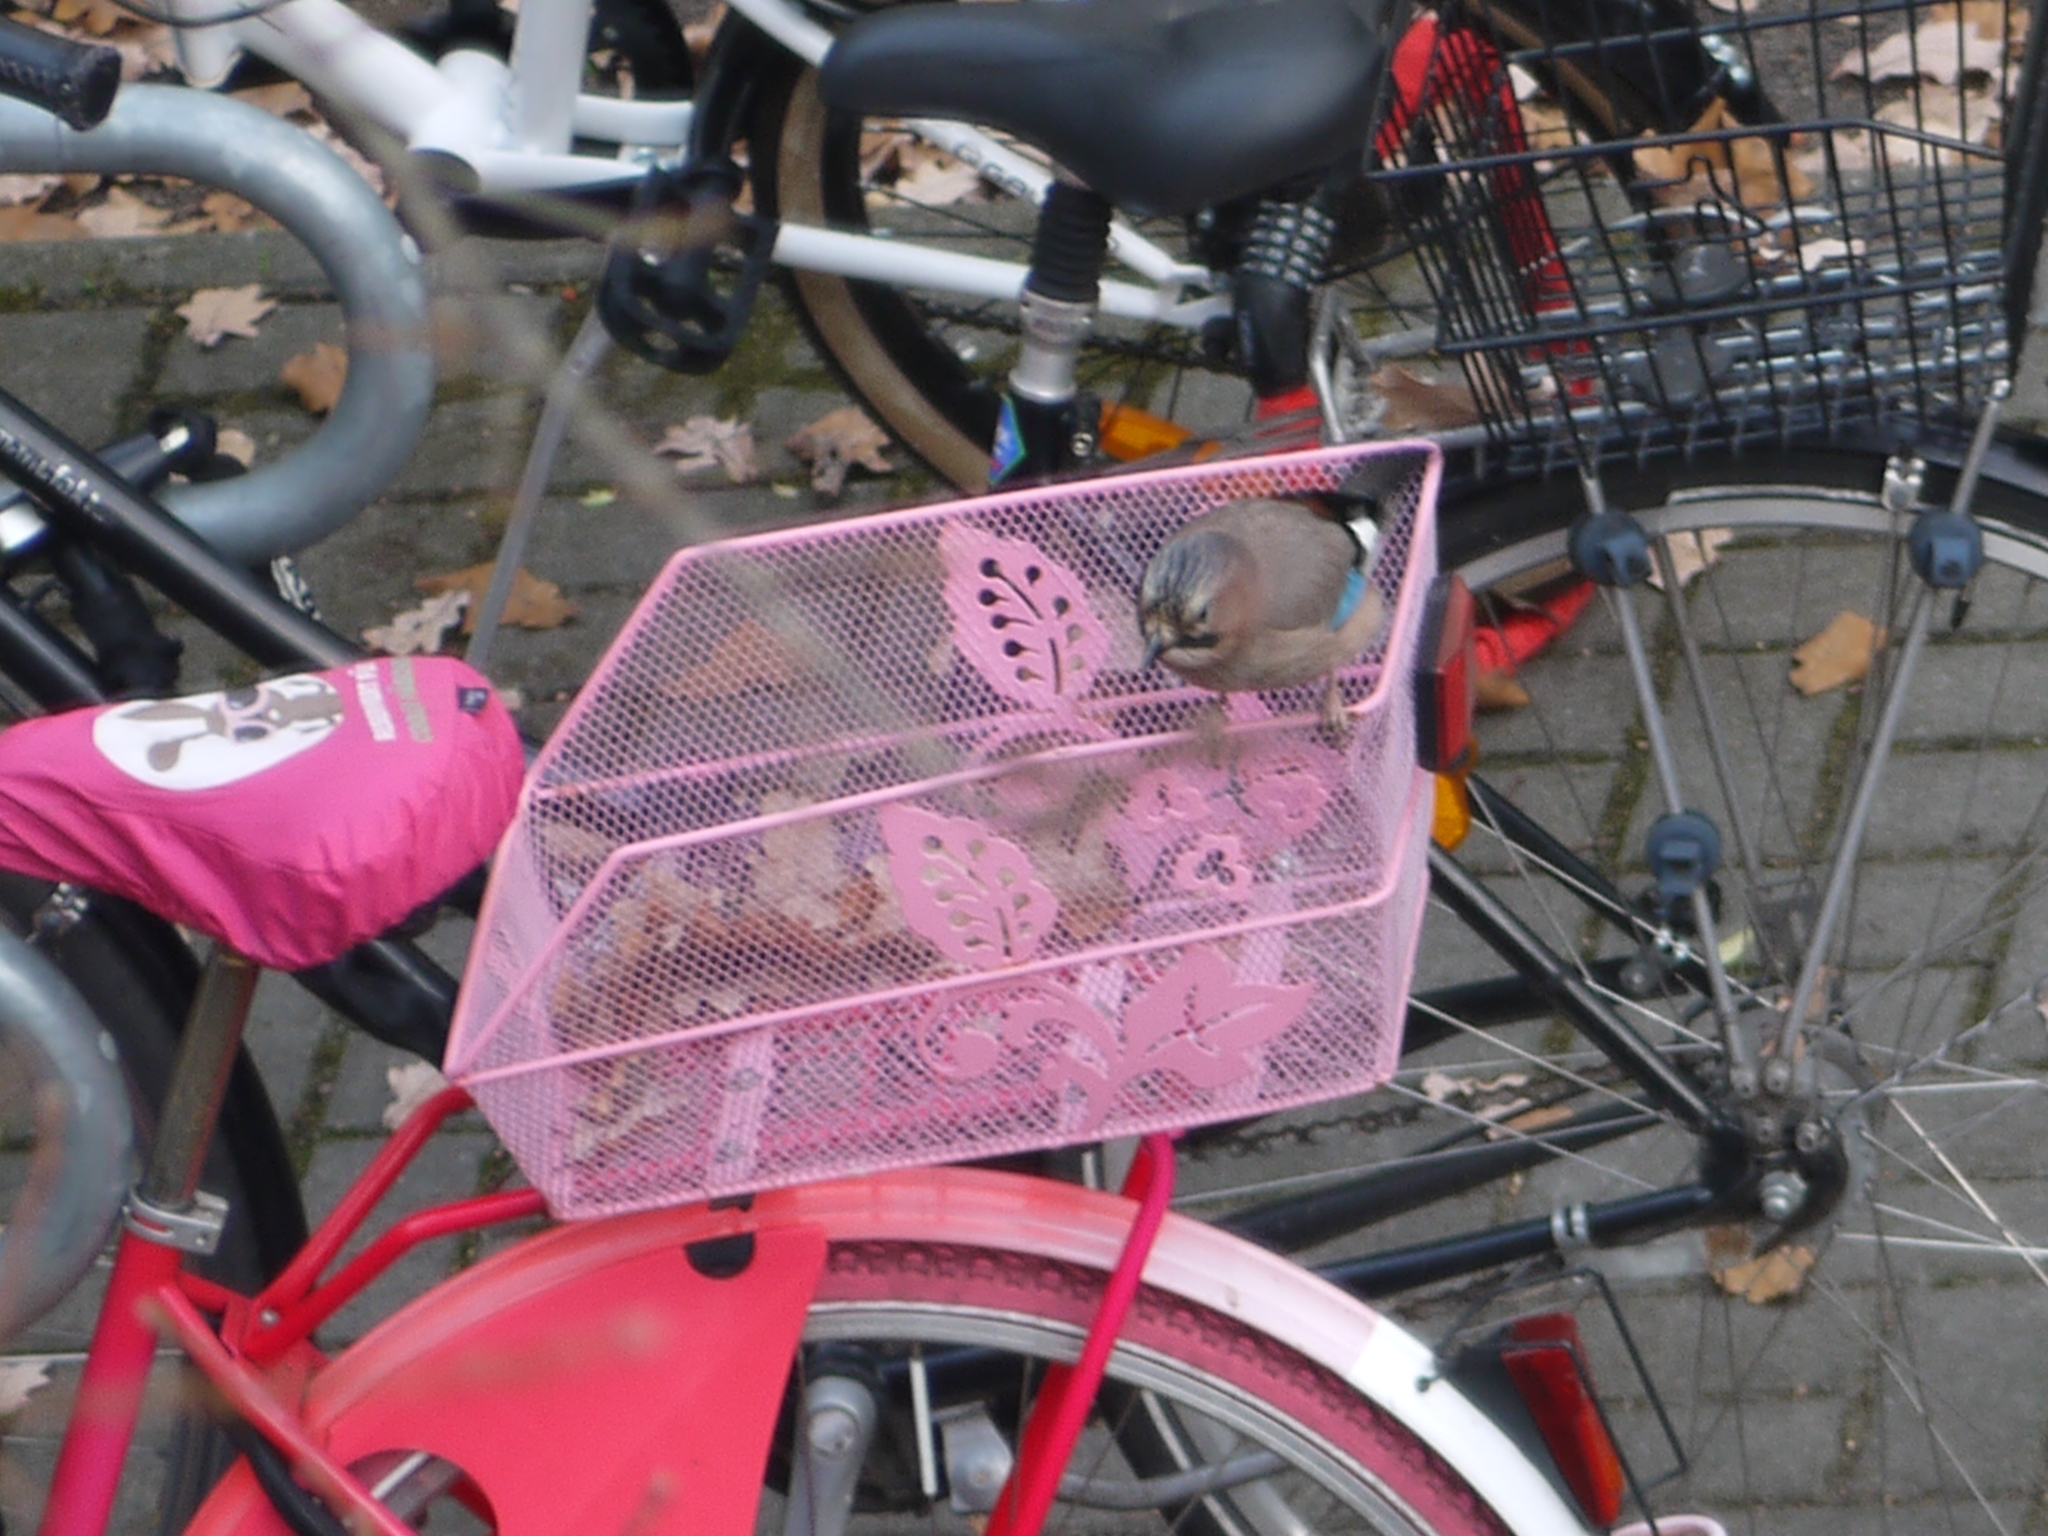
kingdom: Animalia
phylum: Chordata
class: Aves
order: Passeriformes
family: Corvidae
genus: Garrulus
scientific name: Garrulus glandarius
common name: Eurasian jay
